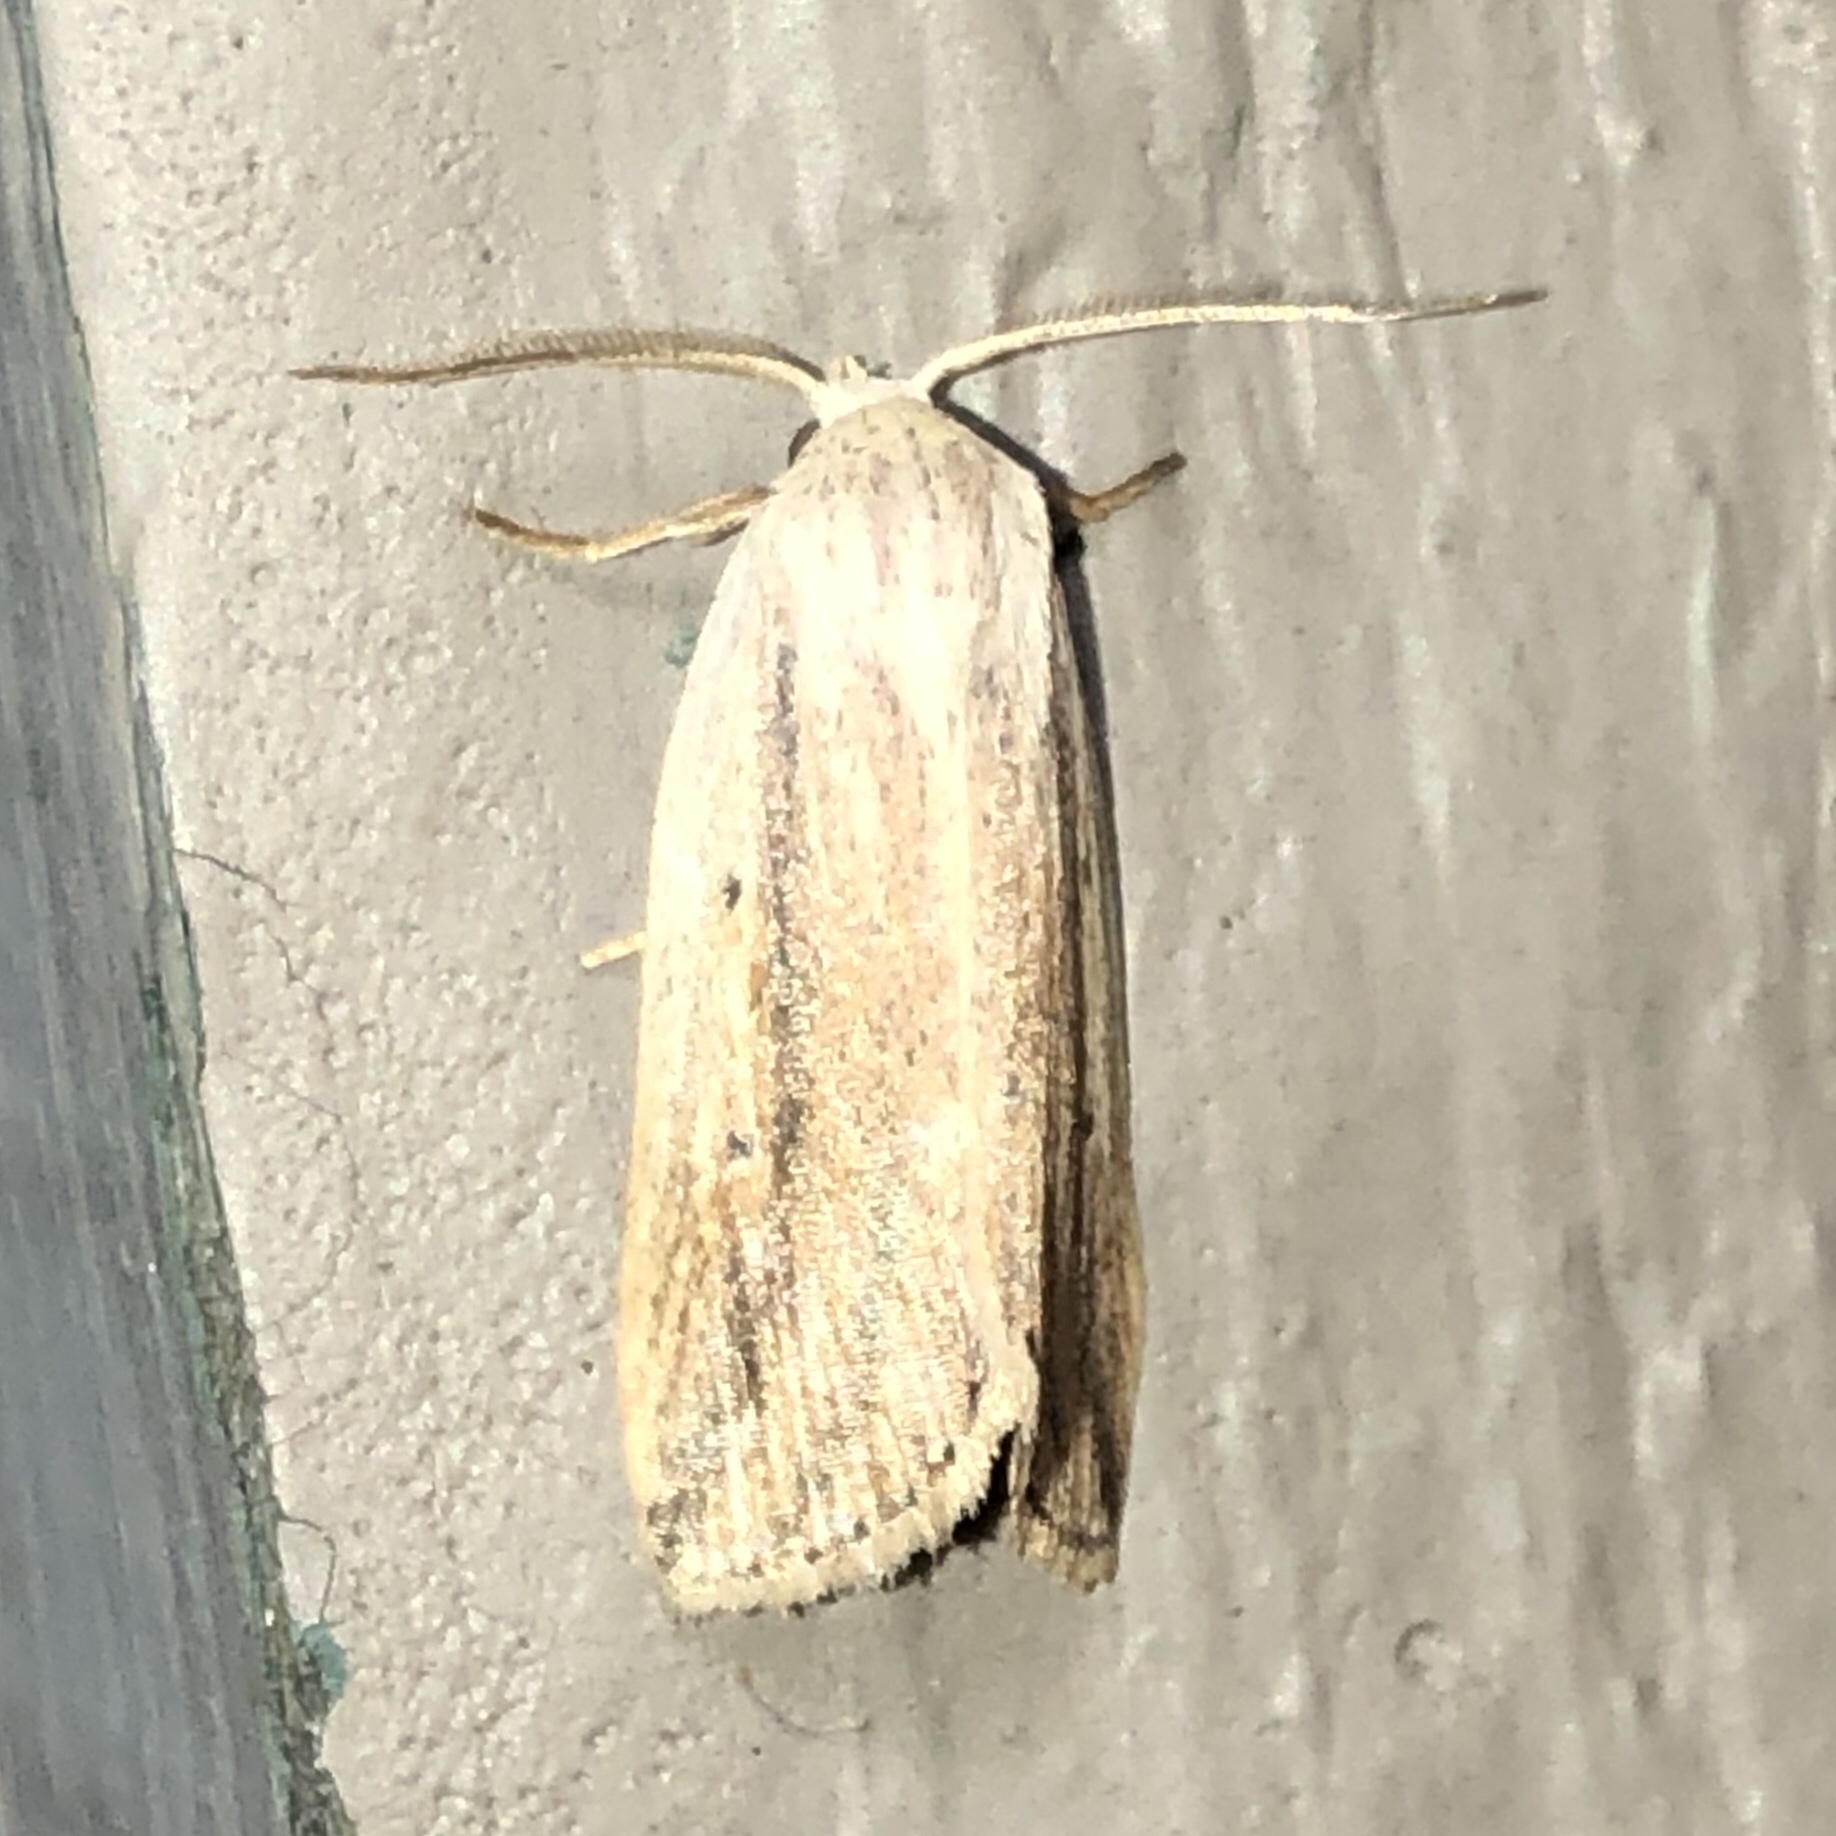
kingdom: Animalia
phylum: Arthropoda
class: Insecta
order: Lepidoptera
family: Noctuidae
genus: Amolita
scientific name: Amolita fessa
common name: Feeble grass moth
